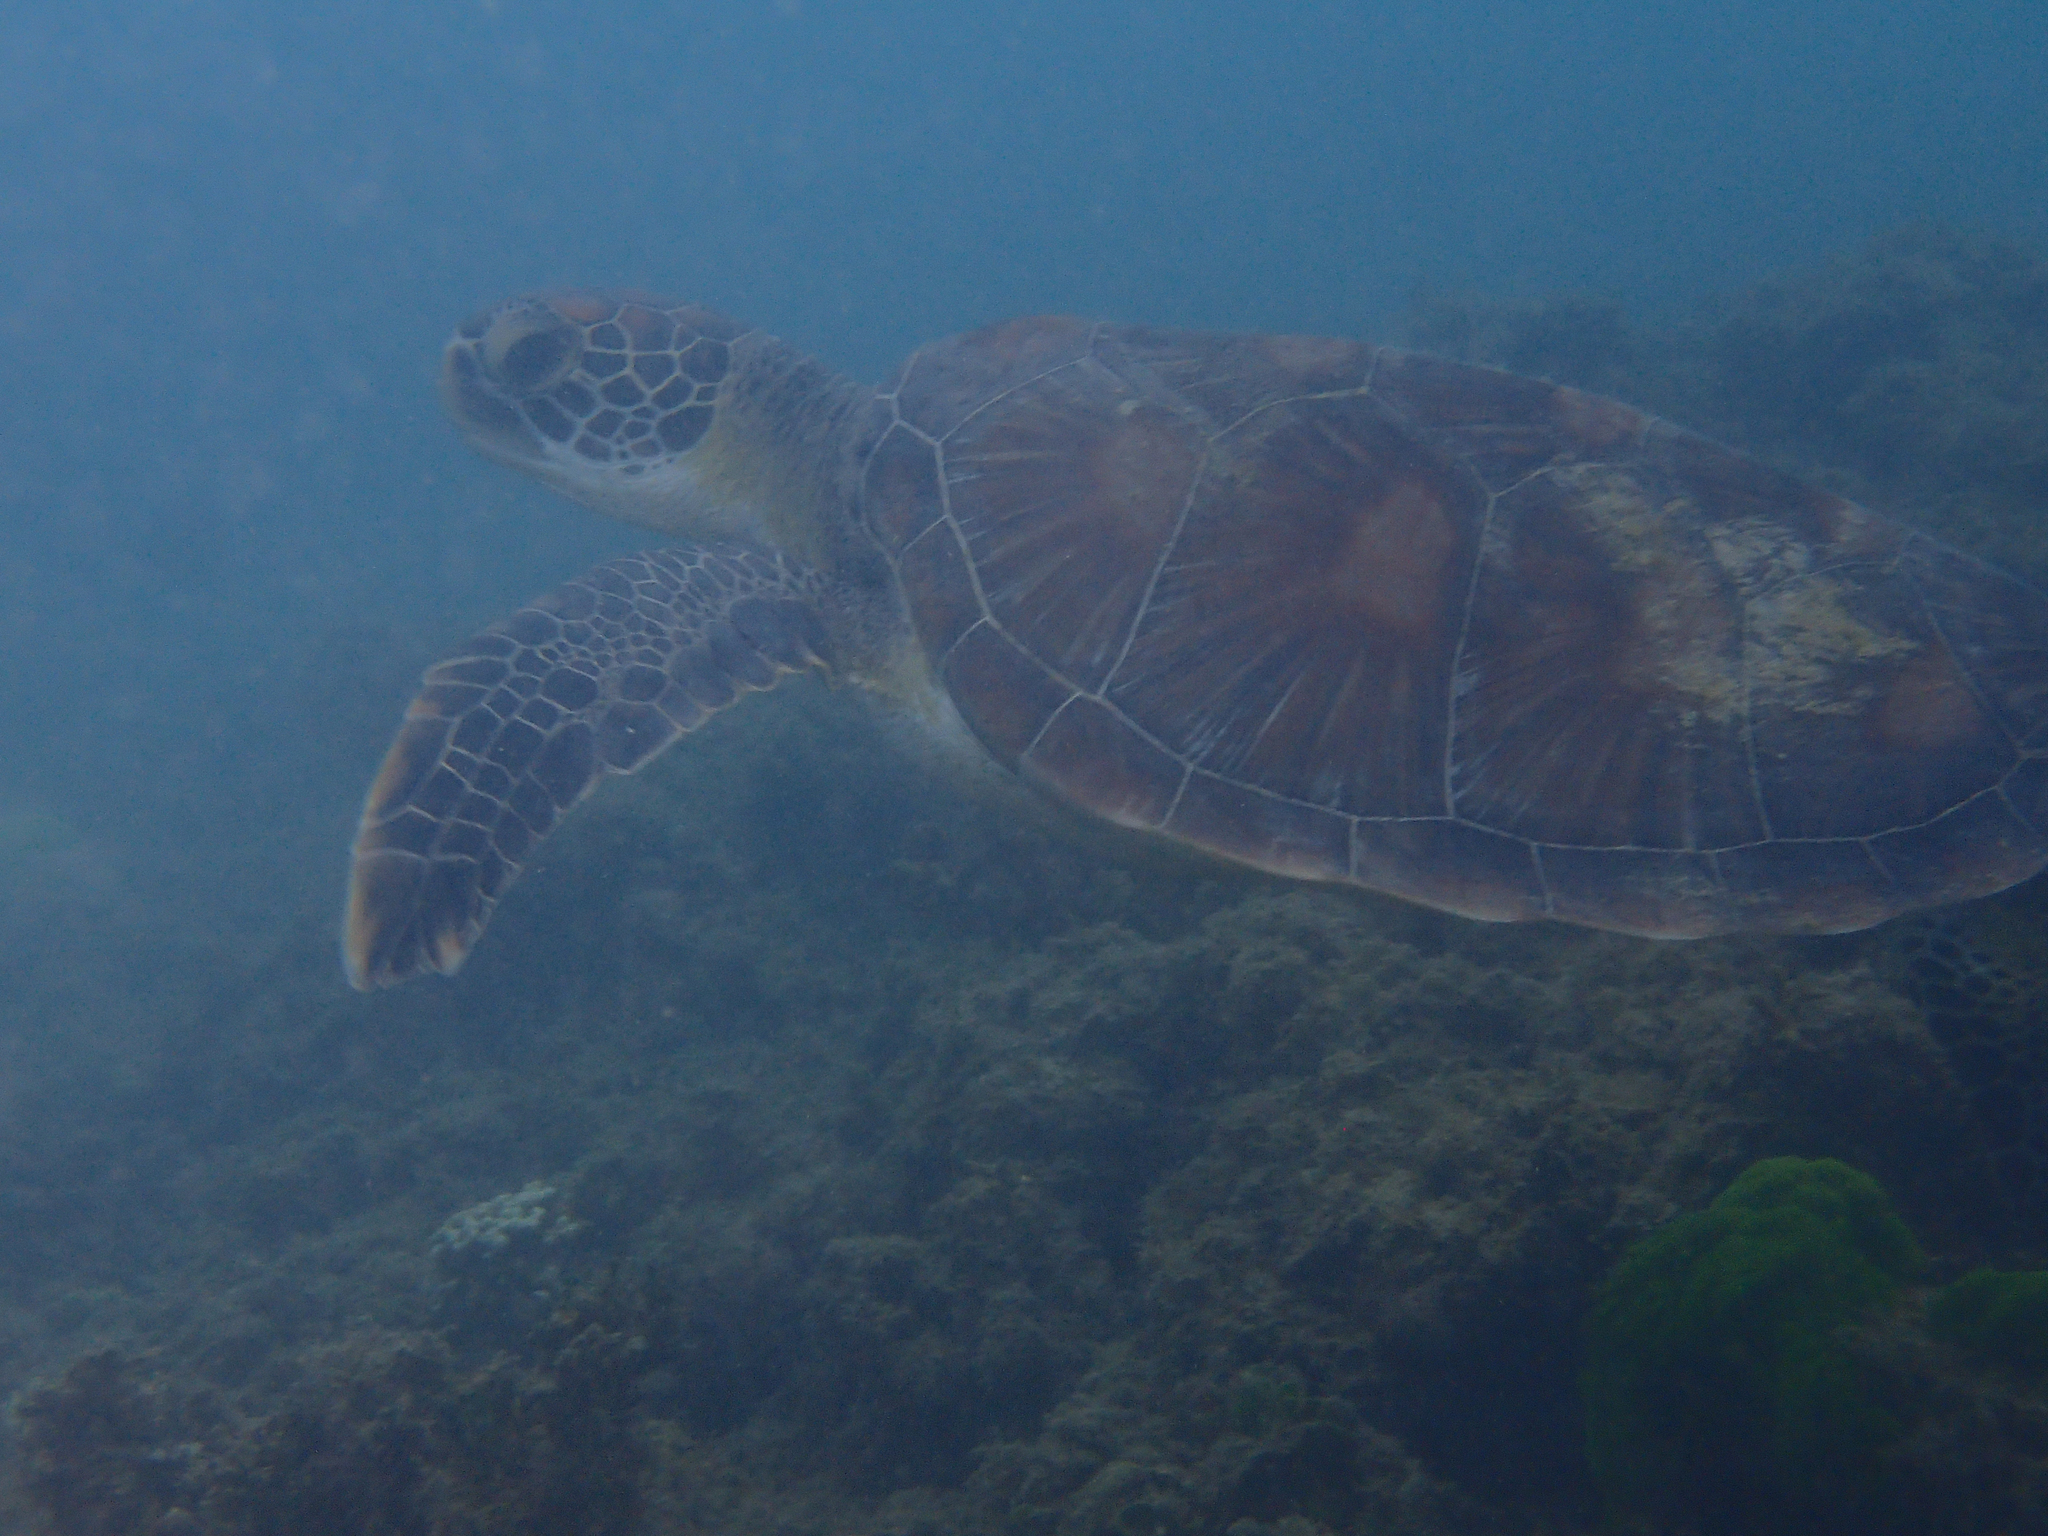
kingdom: Animalia
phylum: Chordata
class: Testudines
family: Cheloniidae
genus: Chelonia
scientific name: Chelonia mydas
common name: Green turtle
